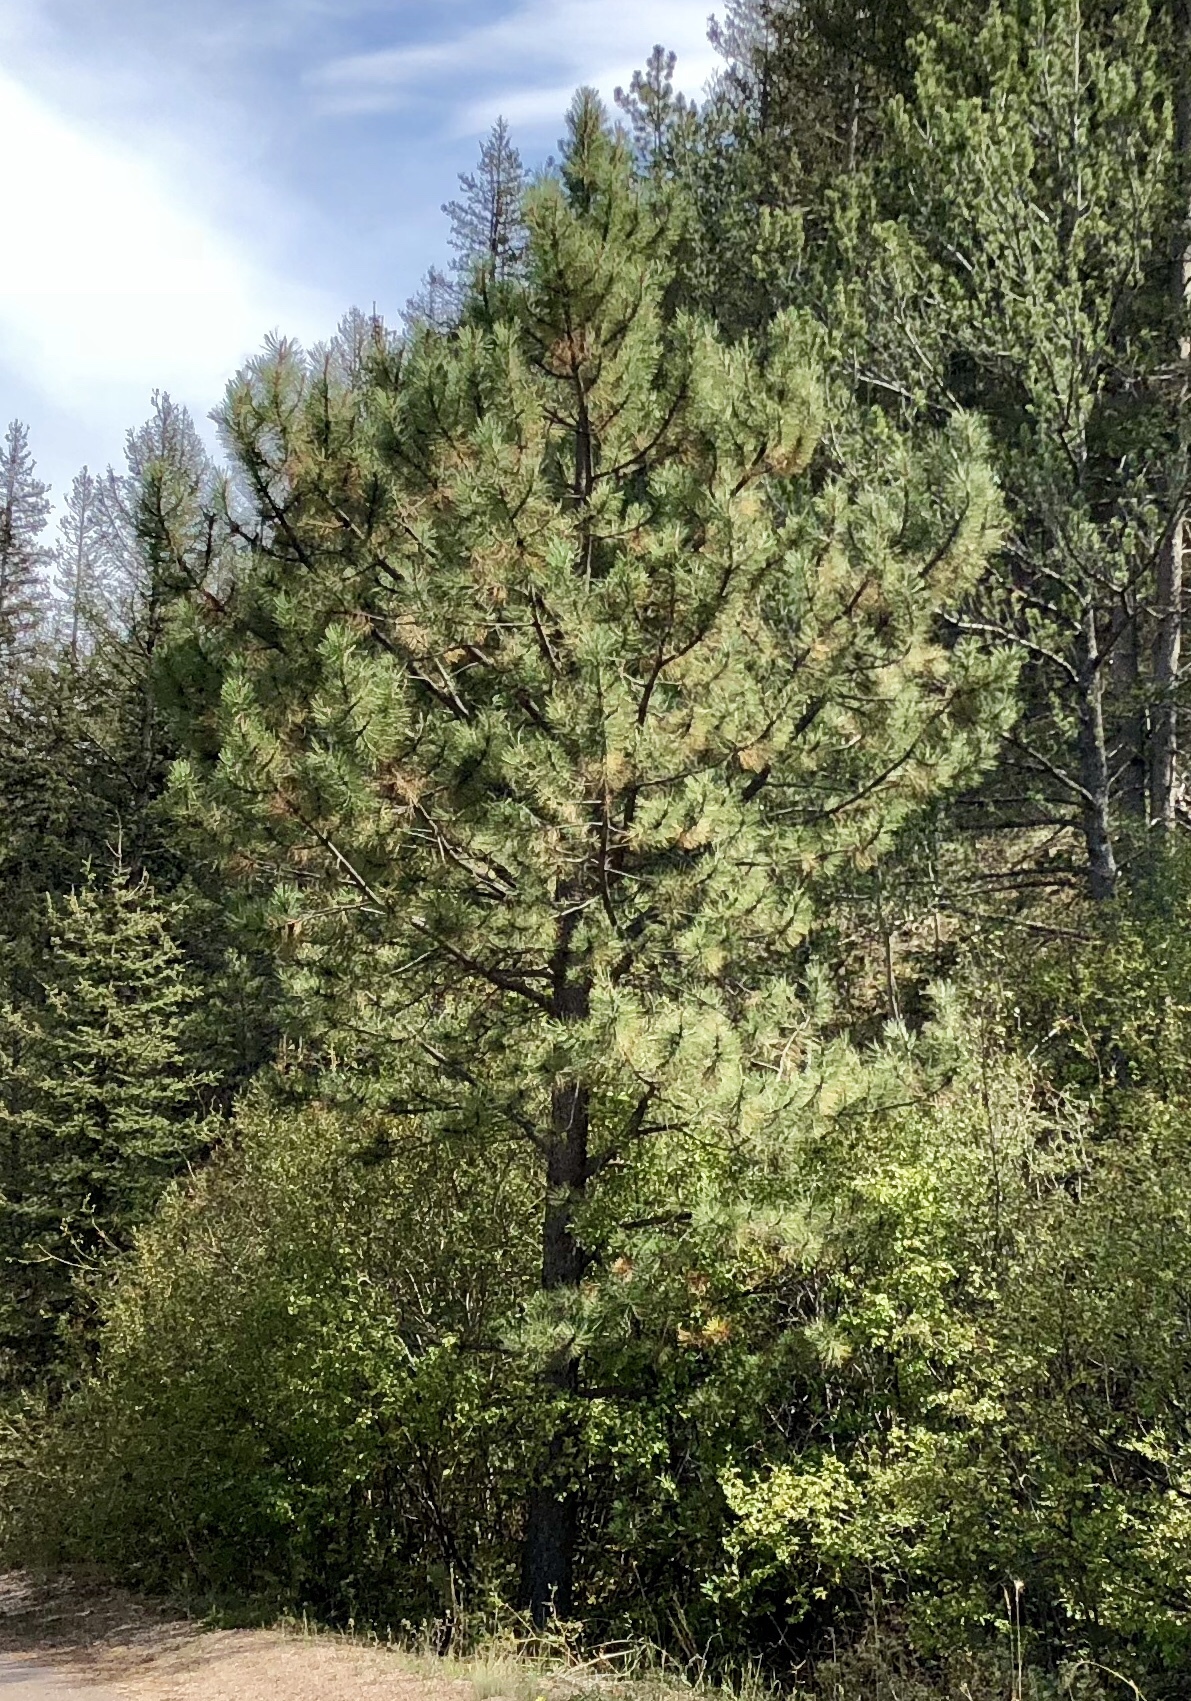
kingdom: Plantae
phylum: Tracheophyta
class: Pinopsida
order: Pinales
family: Pinaceae
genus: Pinus
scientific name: Pinus ponderosa
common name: Western yellow-pine
